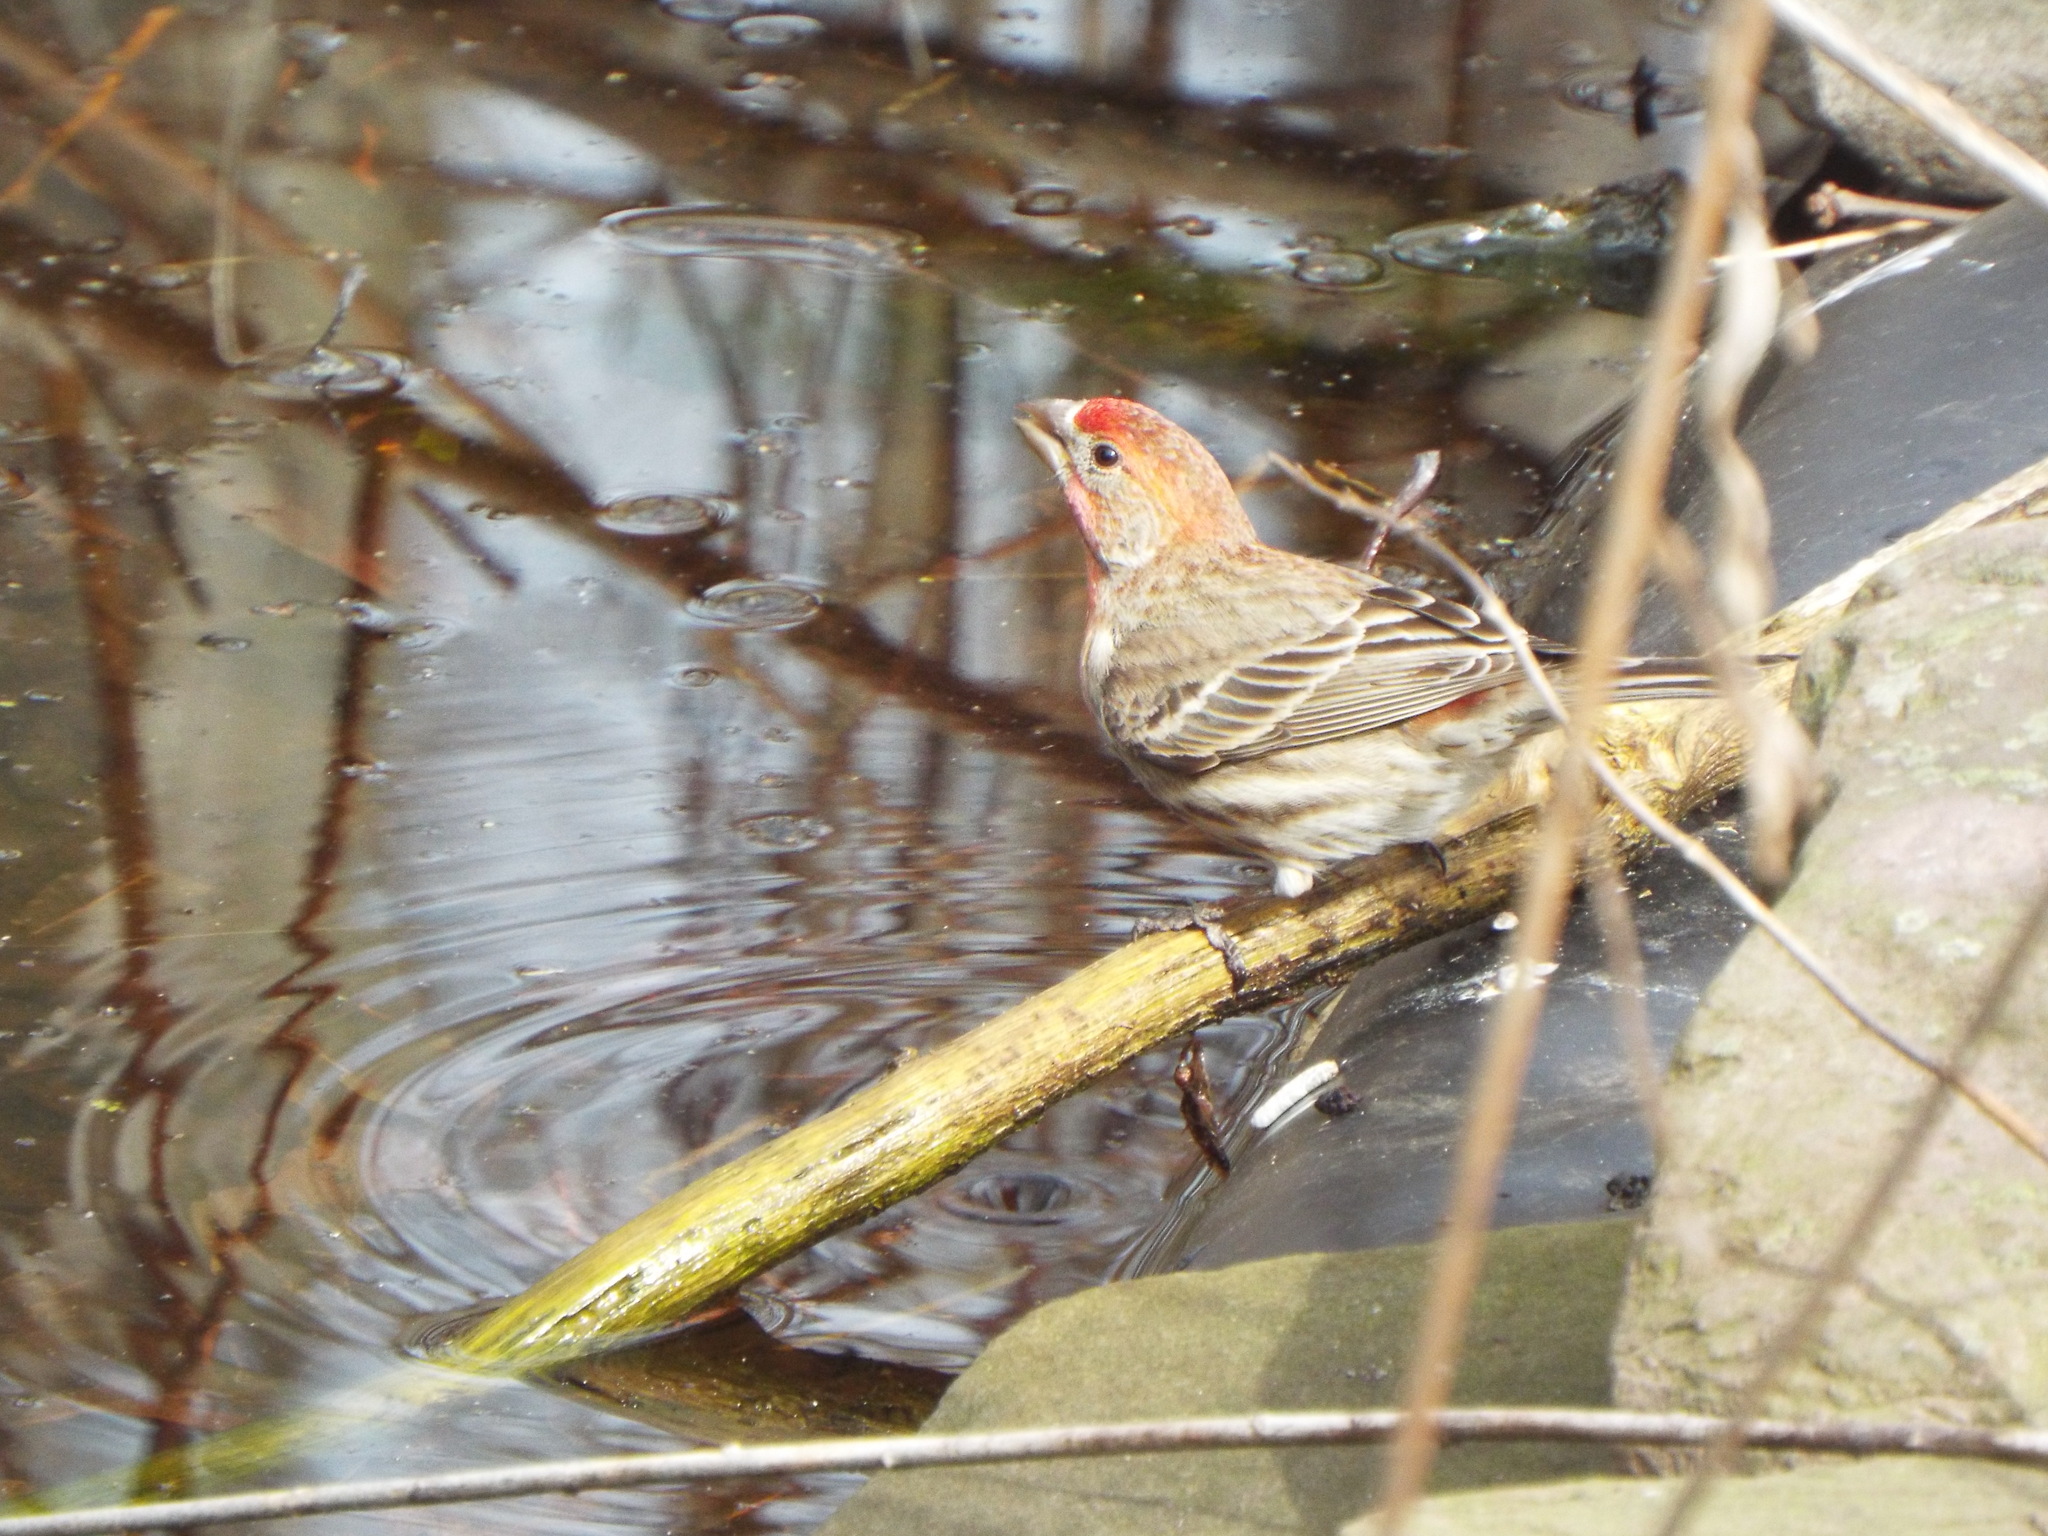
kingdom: Animalia
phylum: Chordata
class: Aves
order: Passeriformes
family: Fringillidae
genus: Haemorhous
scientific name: Haemorhous mexicanus
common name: House finch
